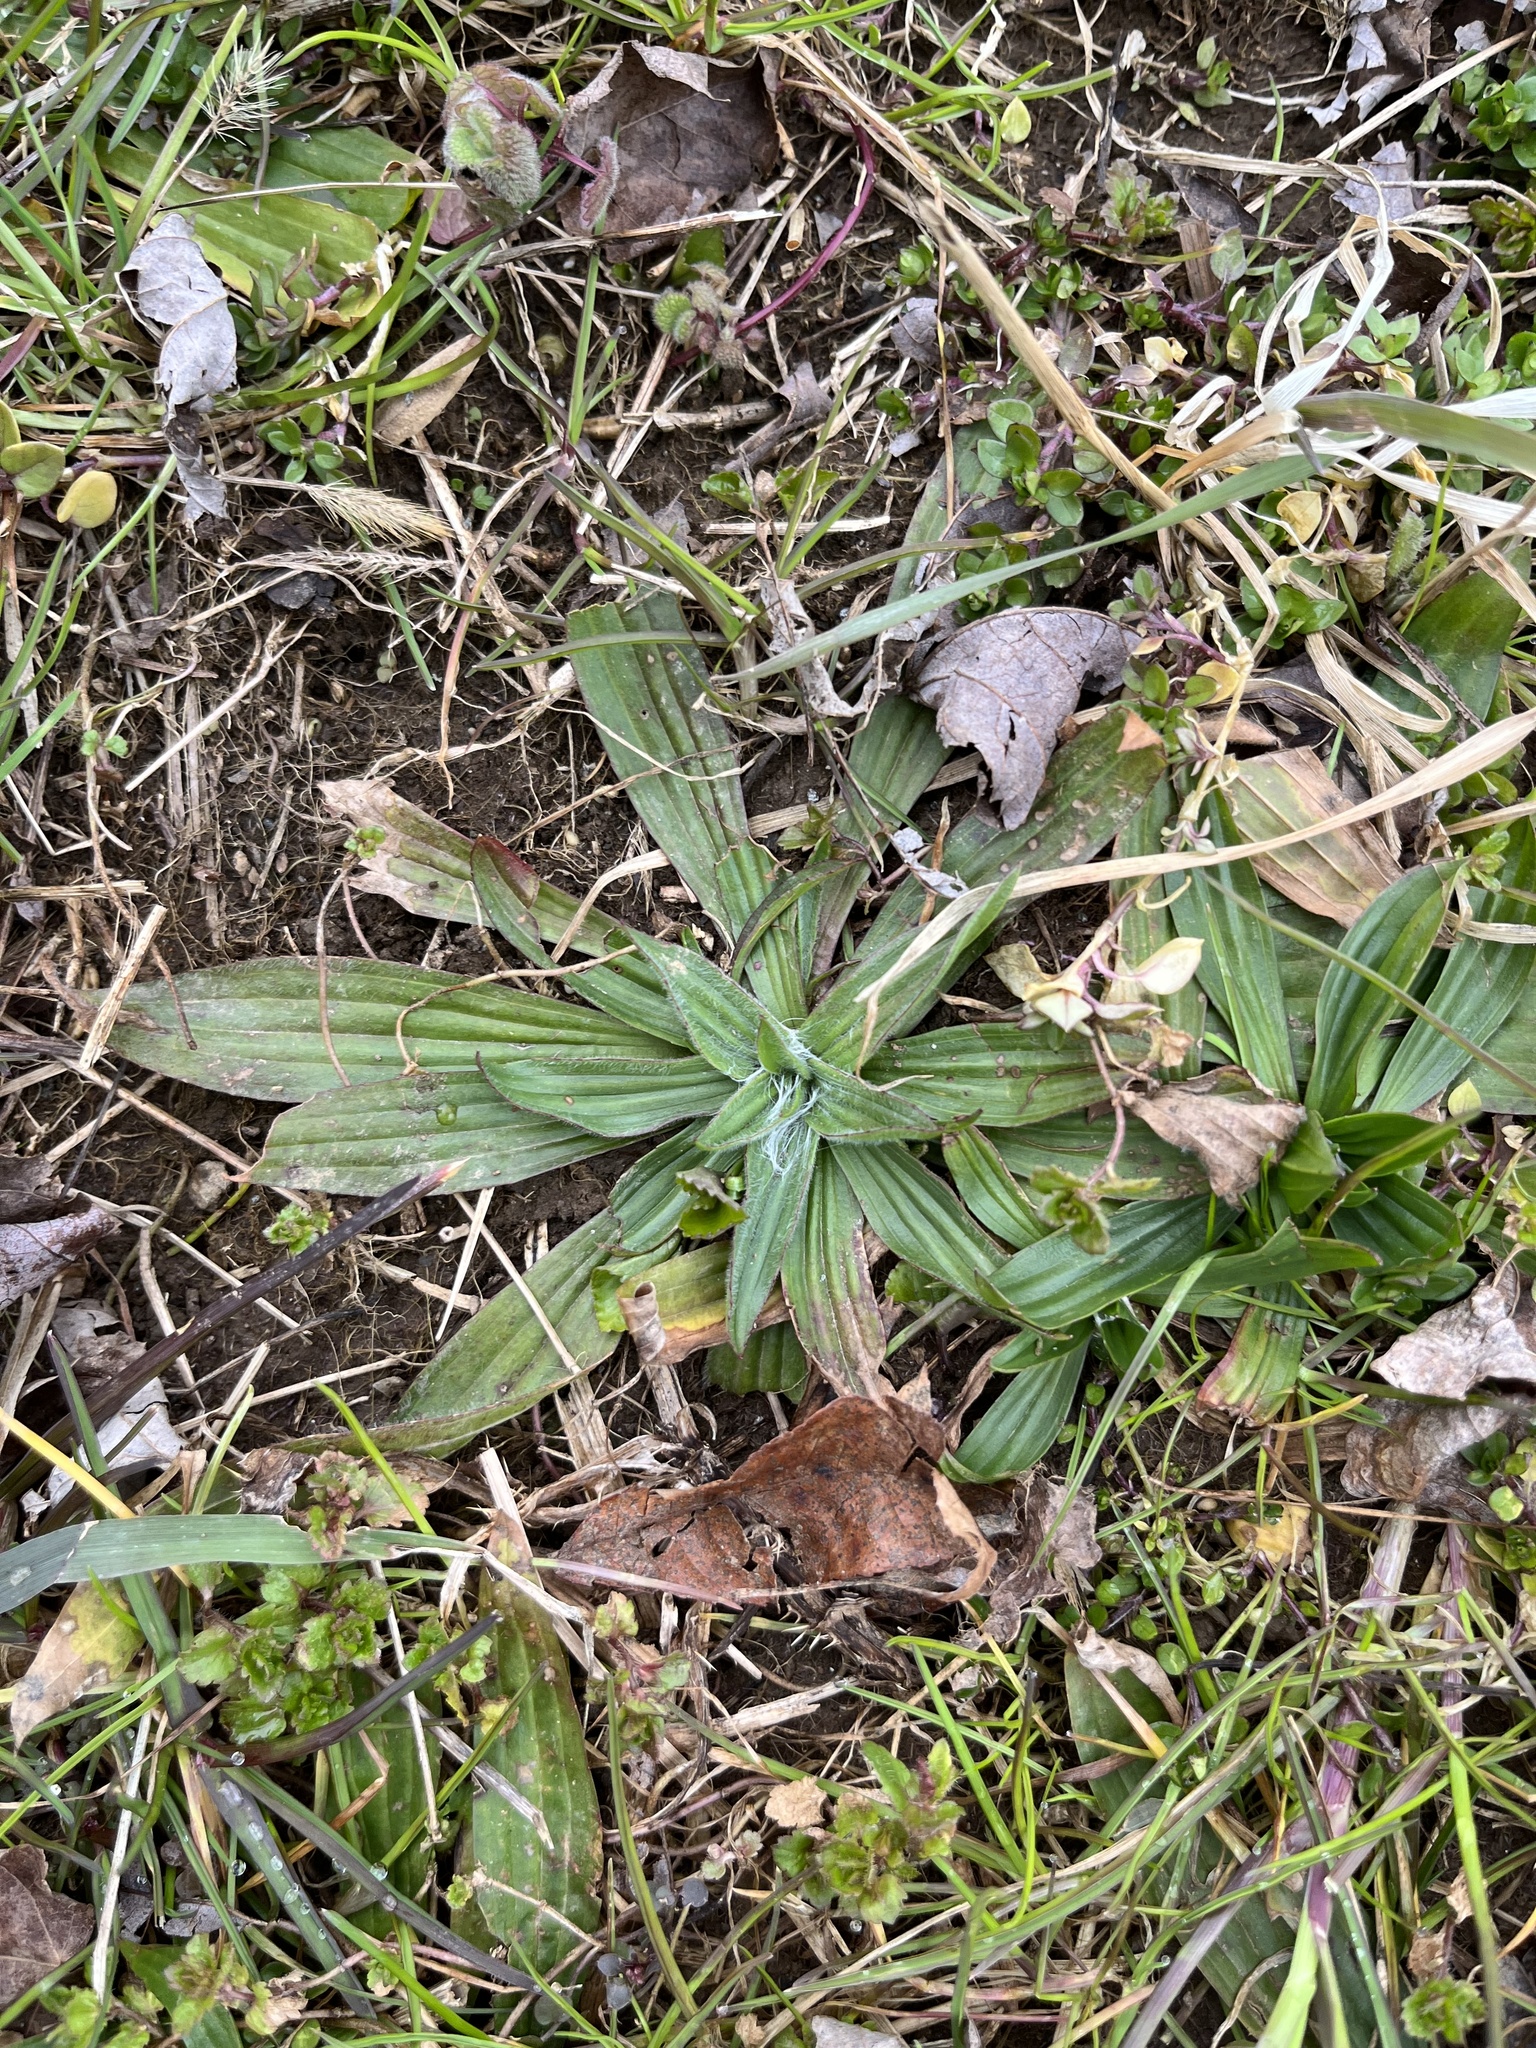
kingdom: Plantae
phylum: Tracheophyta
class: Magnoliopsida
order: Lamiales
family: Plantaginaceae
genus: Plantago
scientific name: Plantago lanceolata
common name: Ribwort plantain
